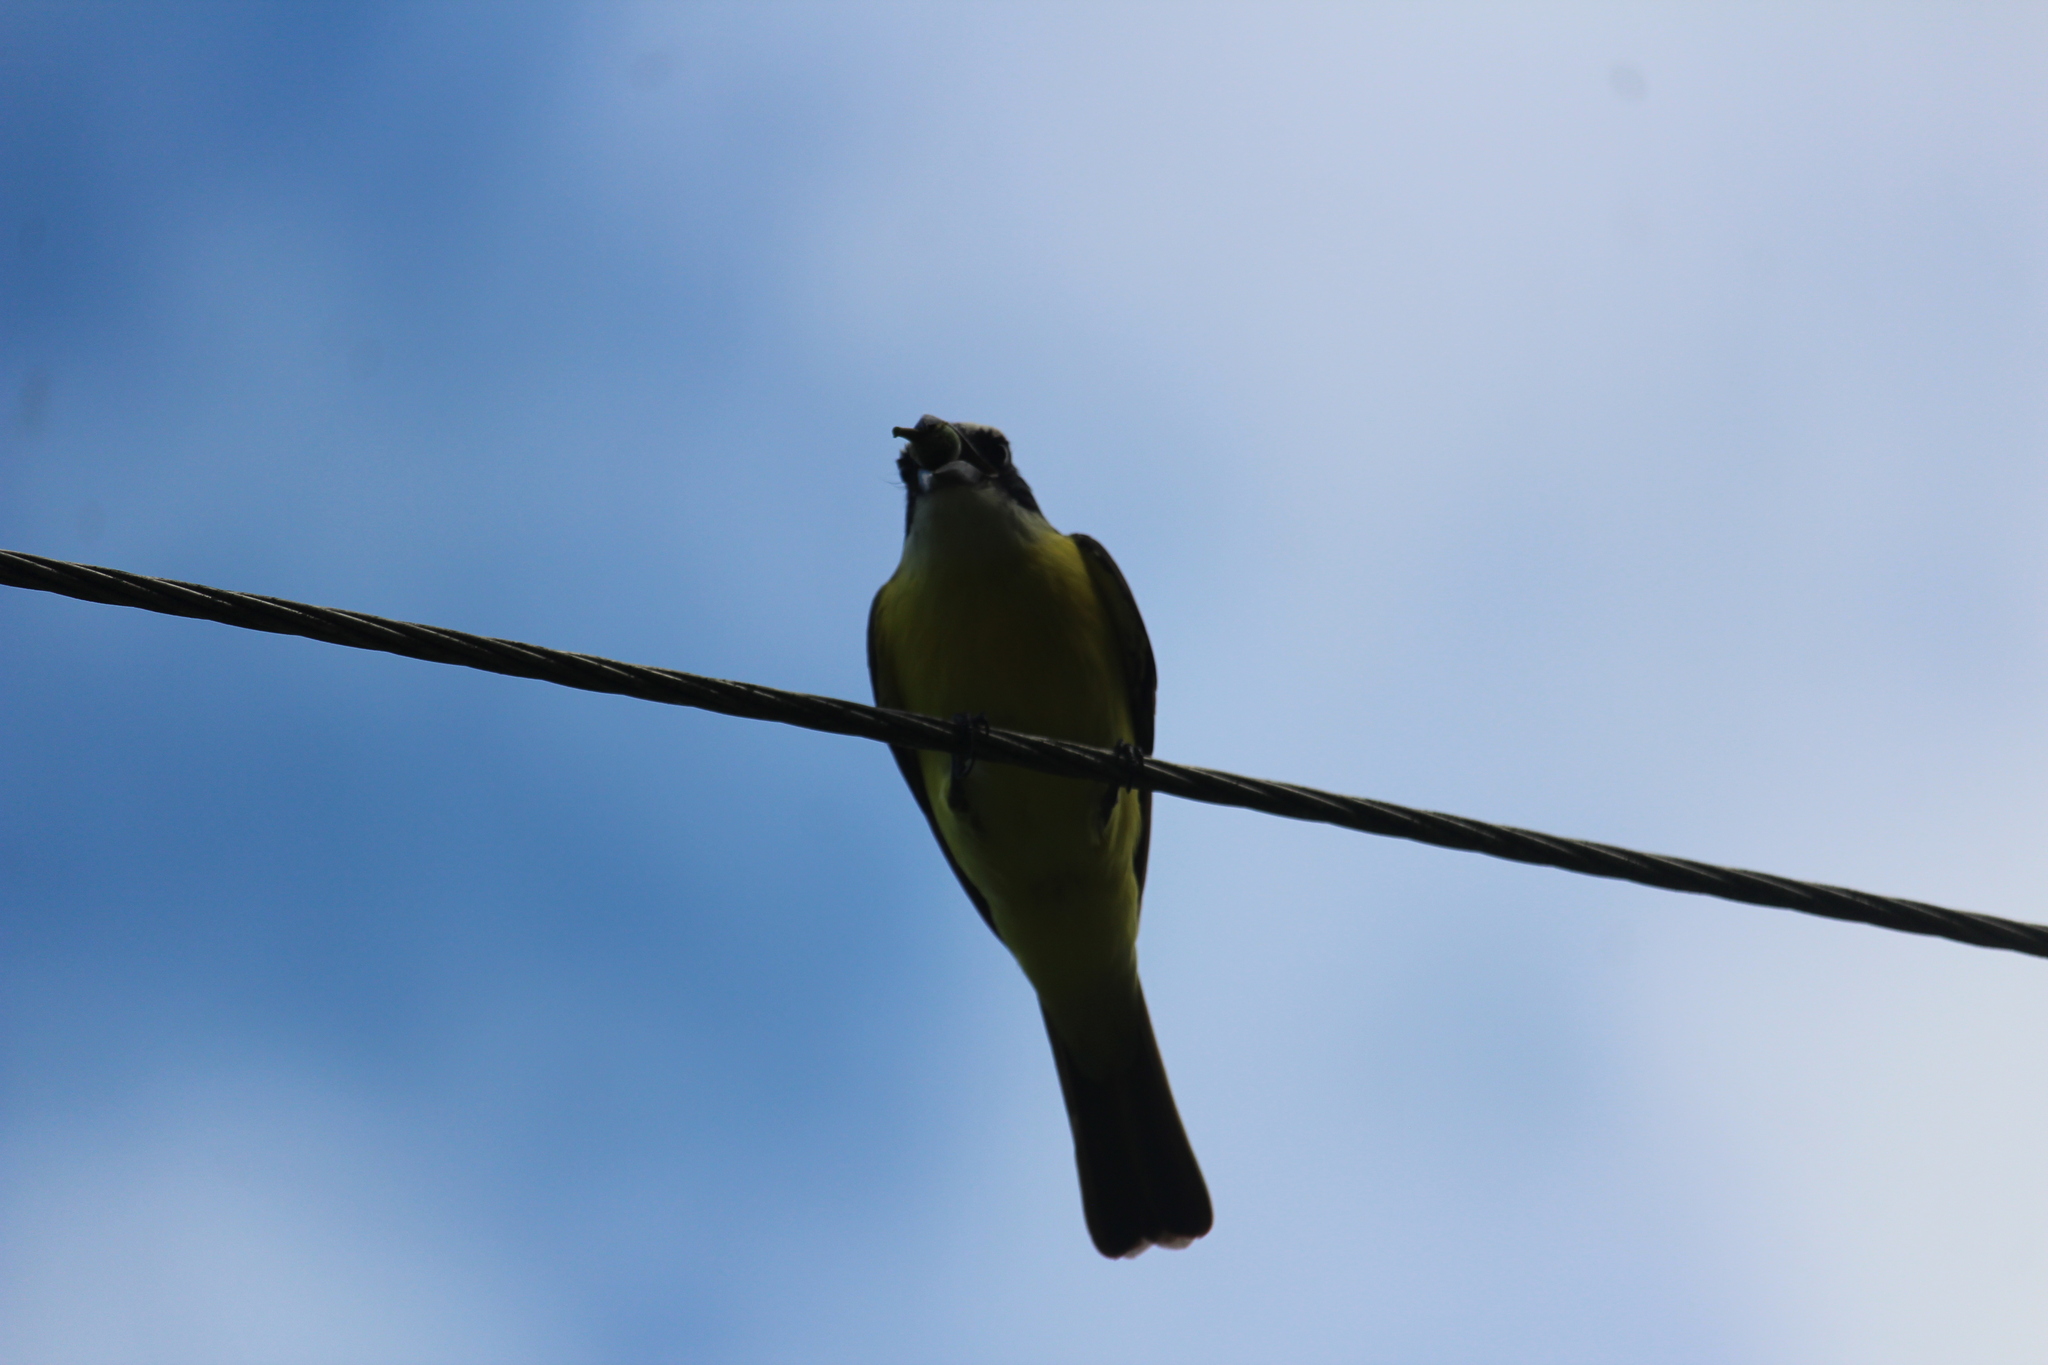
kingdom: Animalia
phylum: Chordata
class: Aves
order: Passeriformes
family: Tyrannidae
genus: Megarynchus
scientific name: Megarynchus pitangua
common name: Boat-billed flycatcher
